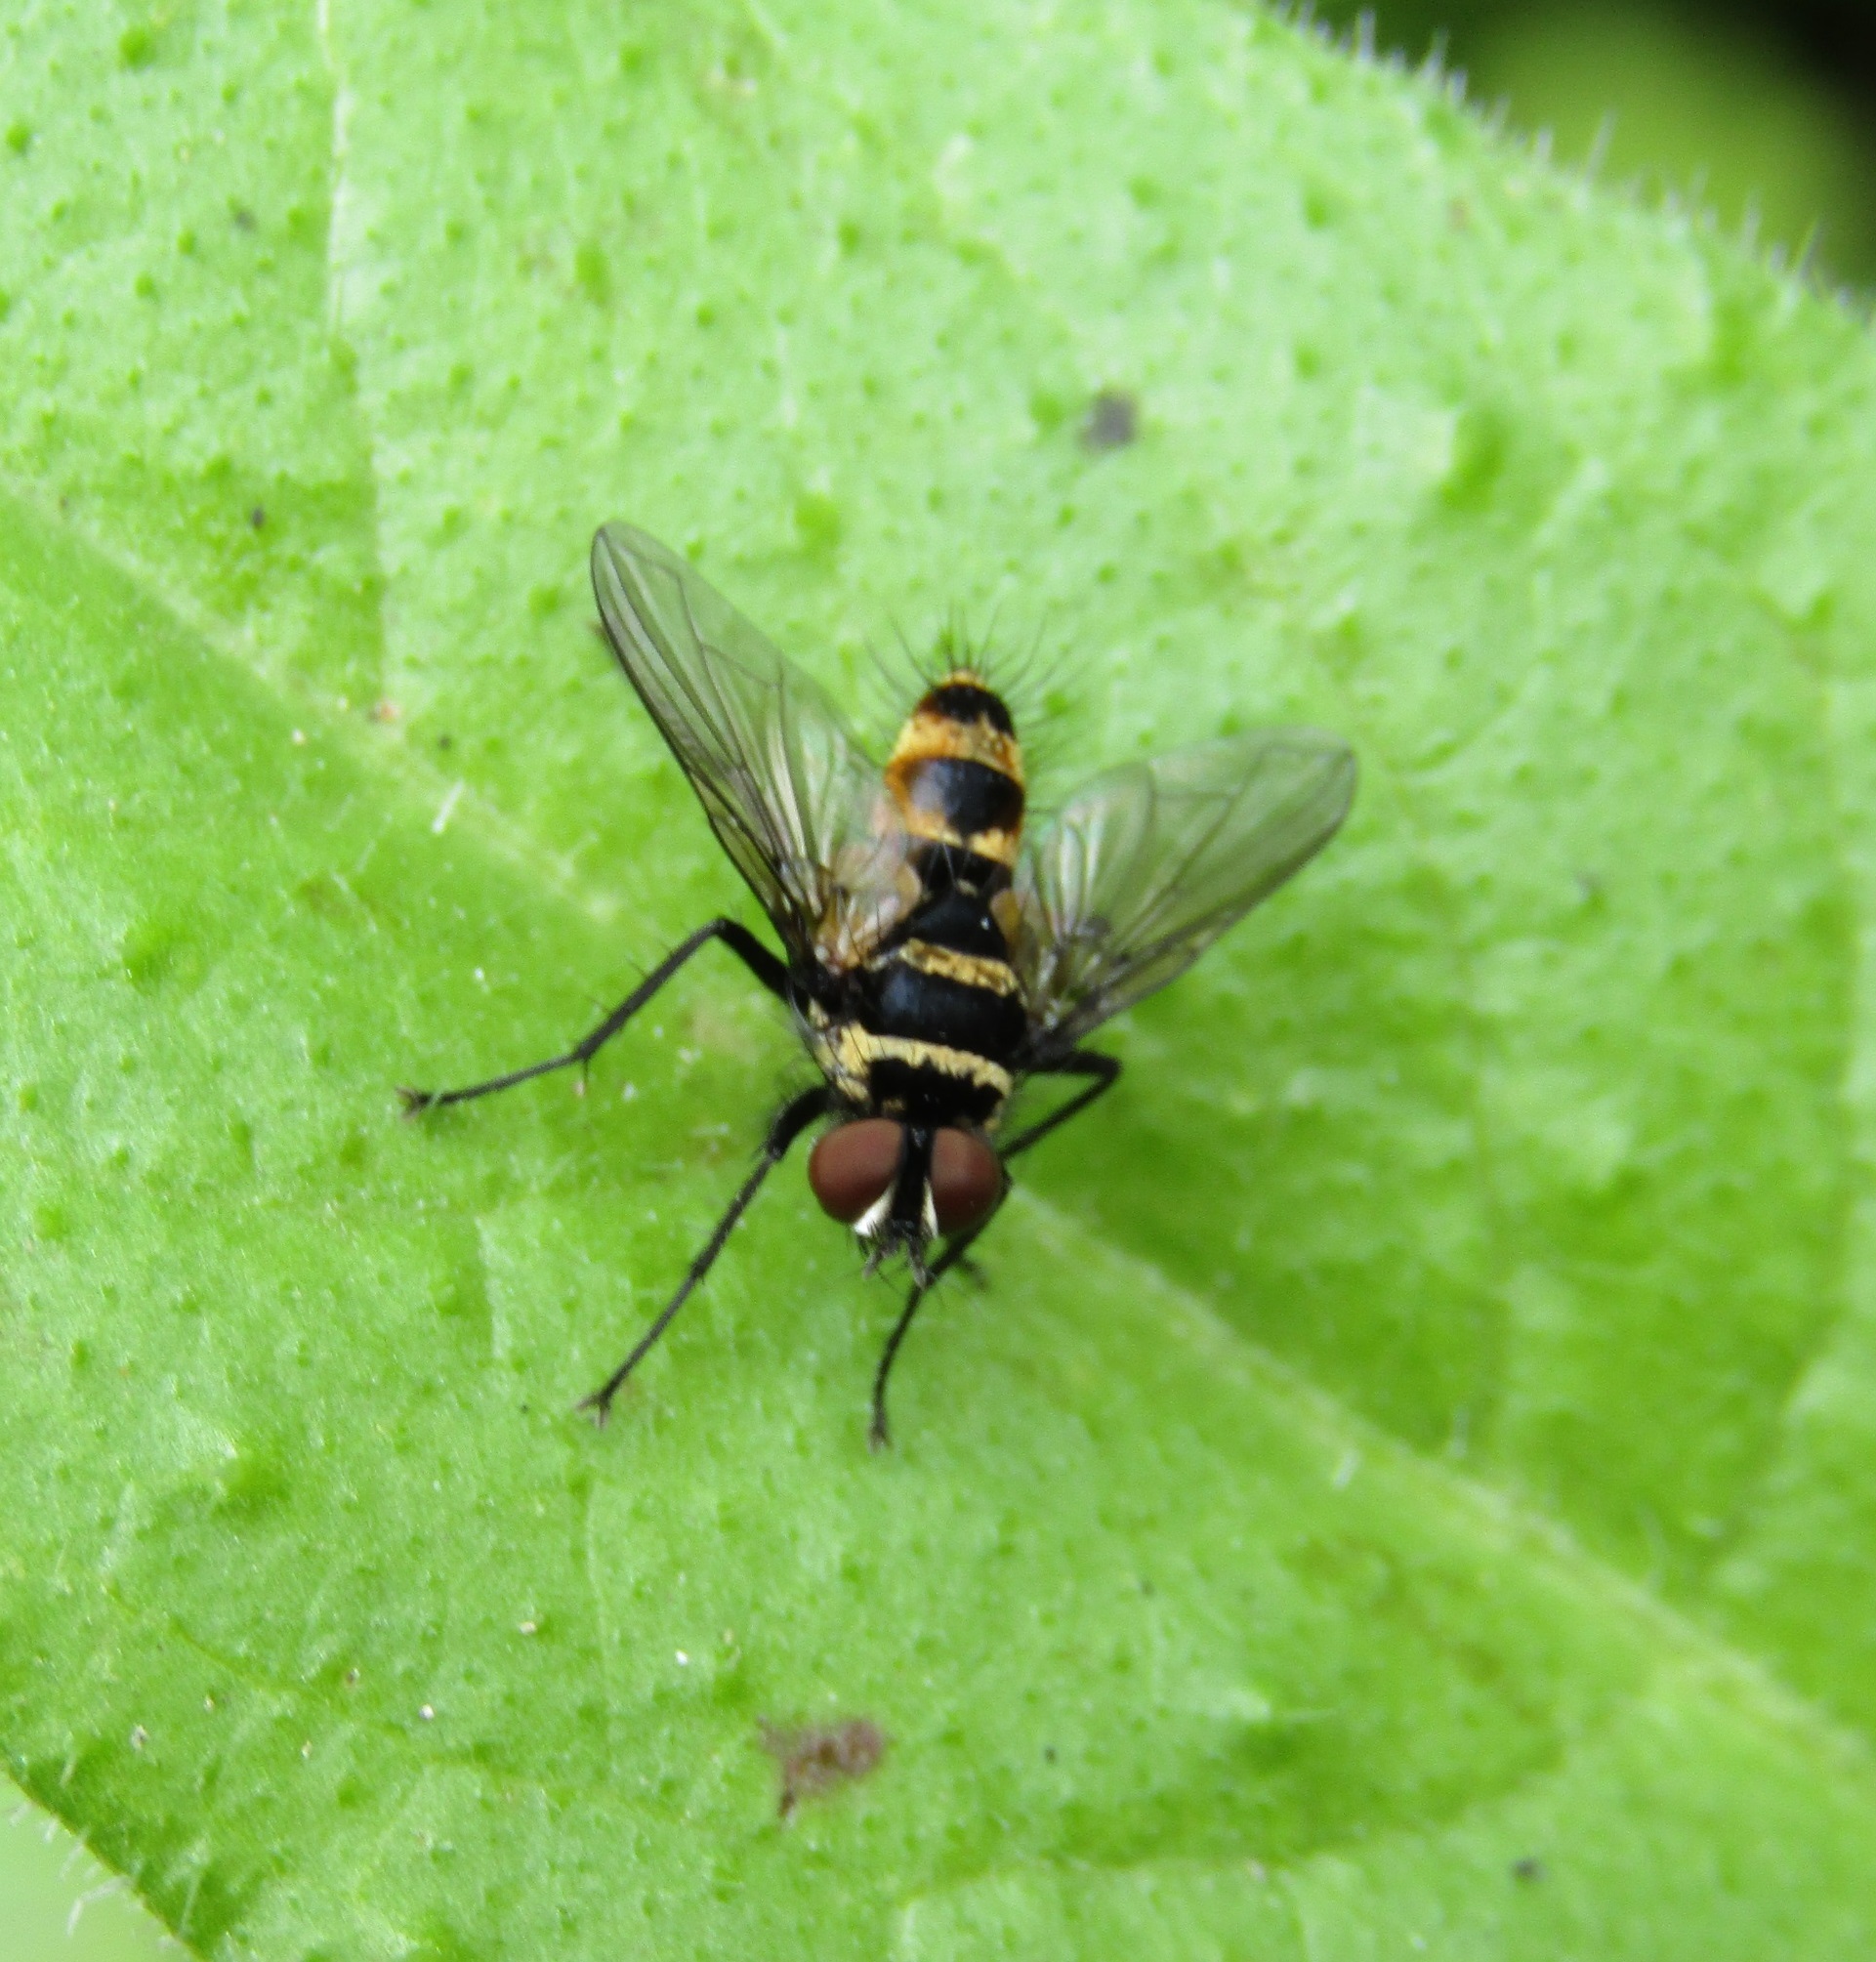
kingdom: Animalia
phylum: Arthropoda
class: Insecta
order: Diptera
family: Tachinidae
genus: Trigonospila
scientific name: Trigonospila brevifacies
